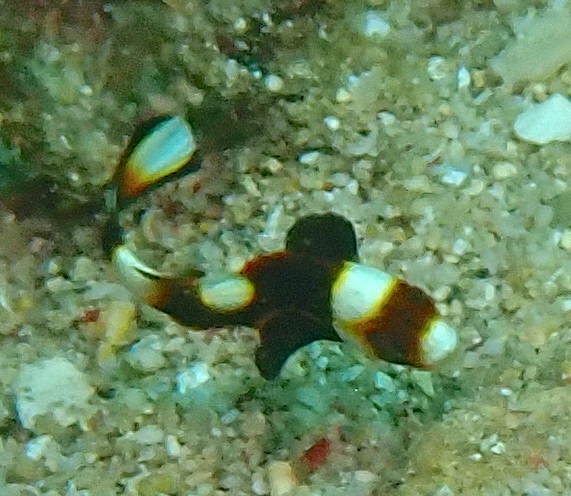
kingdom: Animalia
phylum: Chordata
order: Perciformes
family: Haemulidae
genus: Plectorhinchus
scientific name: Plectorhinchus vittatus
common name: Oriental sweetlips
